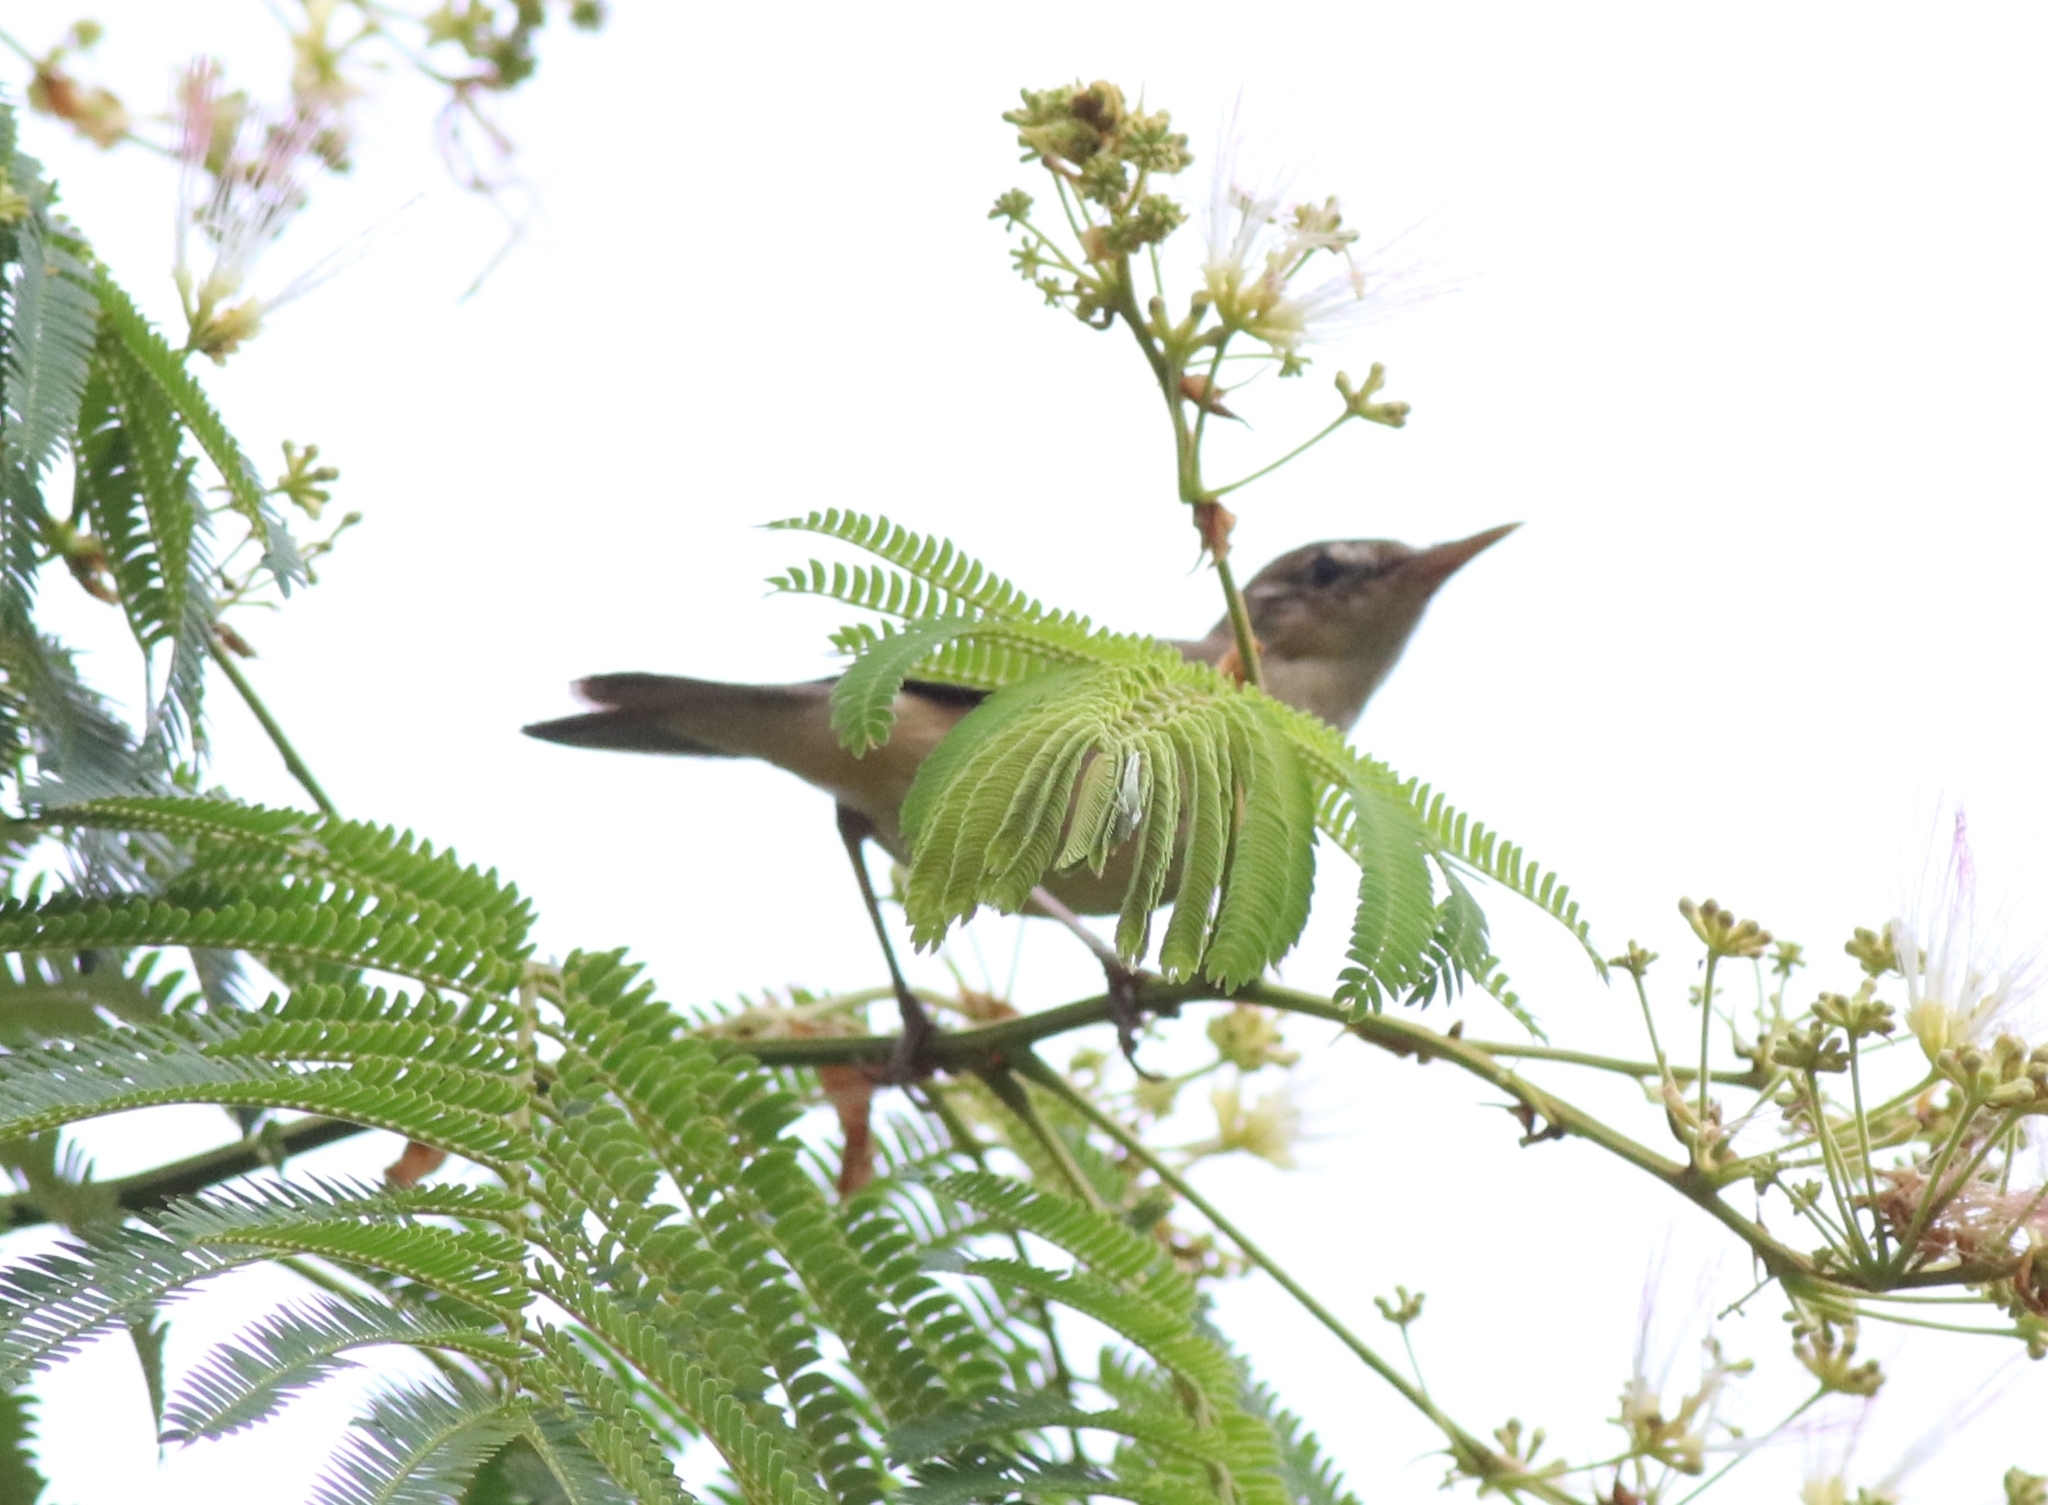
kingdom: Animalia
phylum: Chordata
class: Aves
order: Passeriformes
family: Acrocephalidae
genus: Acrocephalus
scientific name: Acrocephalus dumetorum
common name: Blyth's reed warbler
